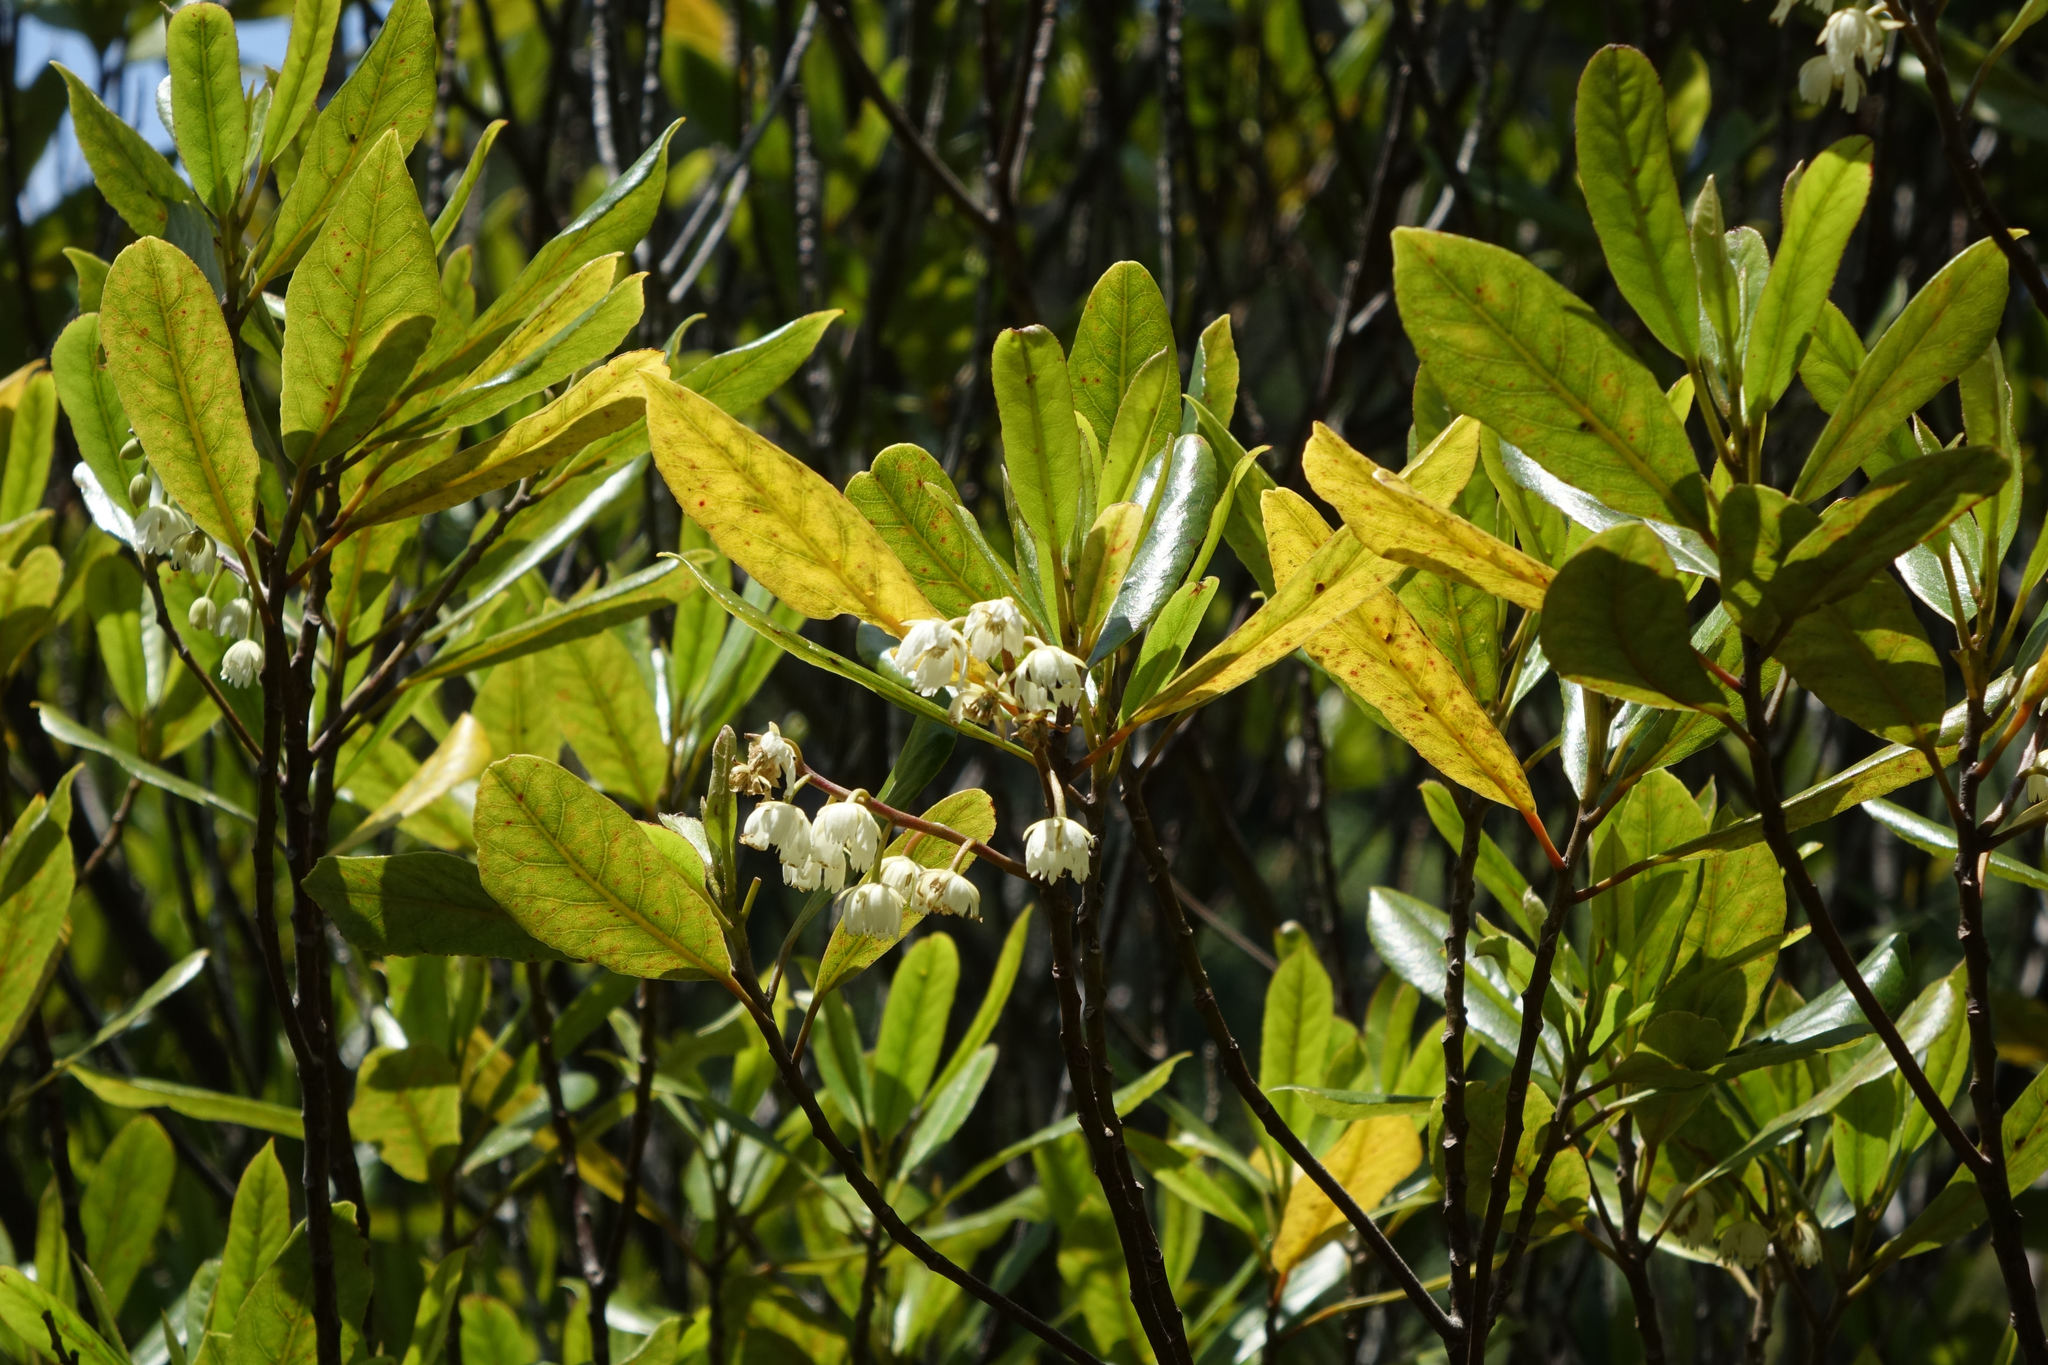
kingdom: Plantae
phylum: Tracheophyta
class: Magnoliopsida
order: Oxalidales
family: Elaeocarpaceae
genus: Elaeocarpus
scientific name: Elaeocarpus dentatus
